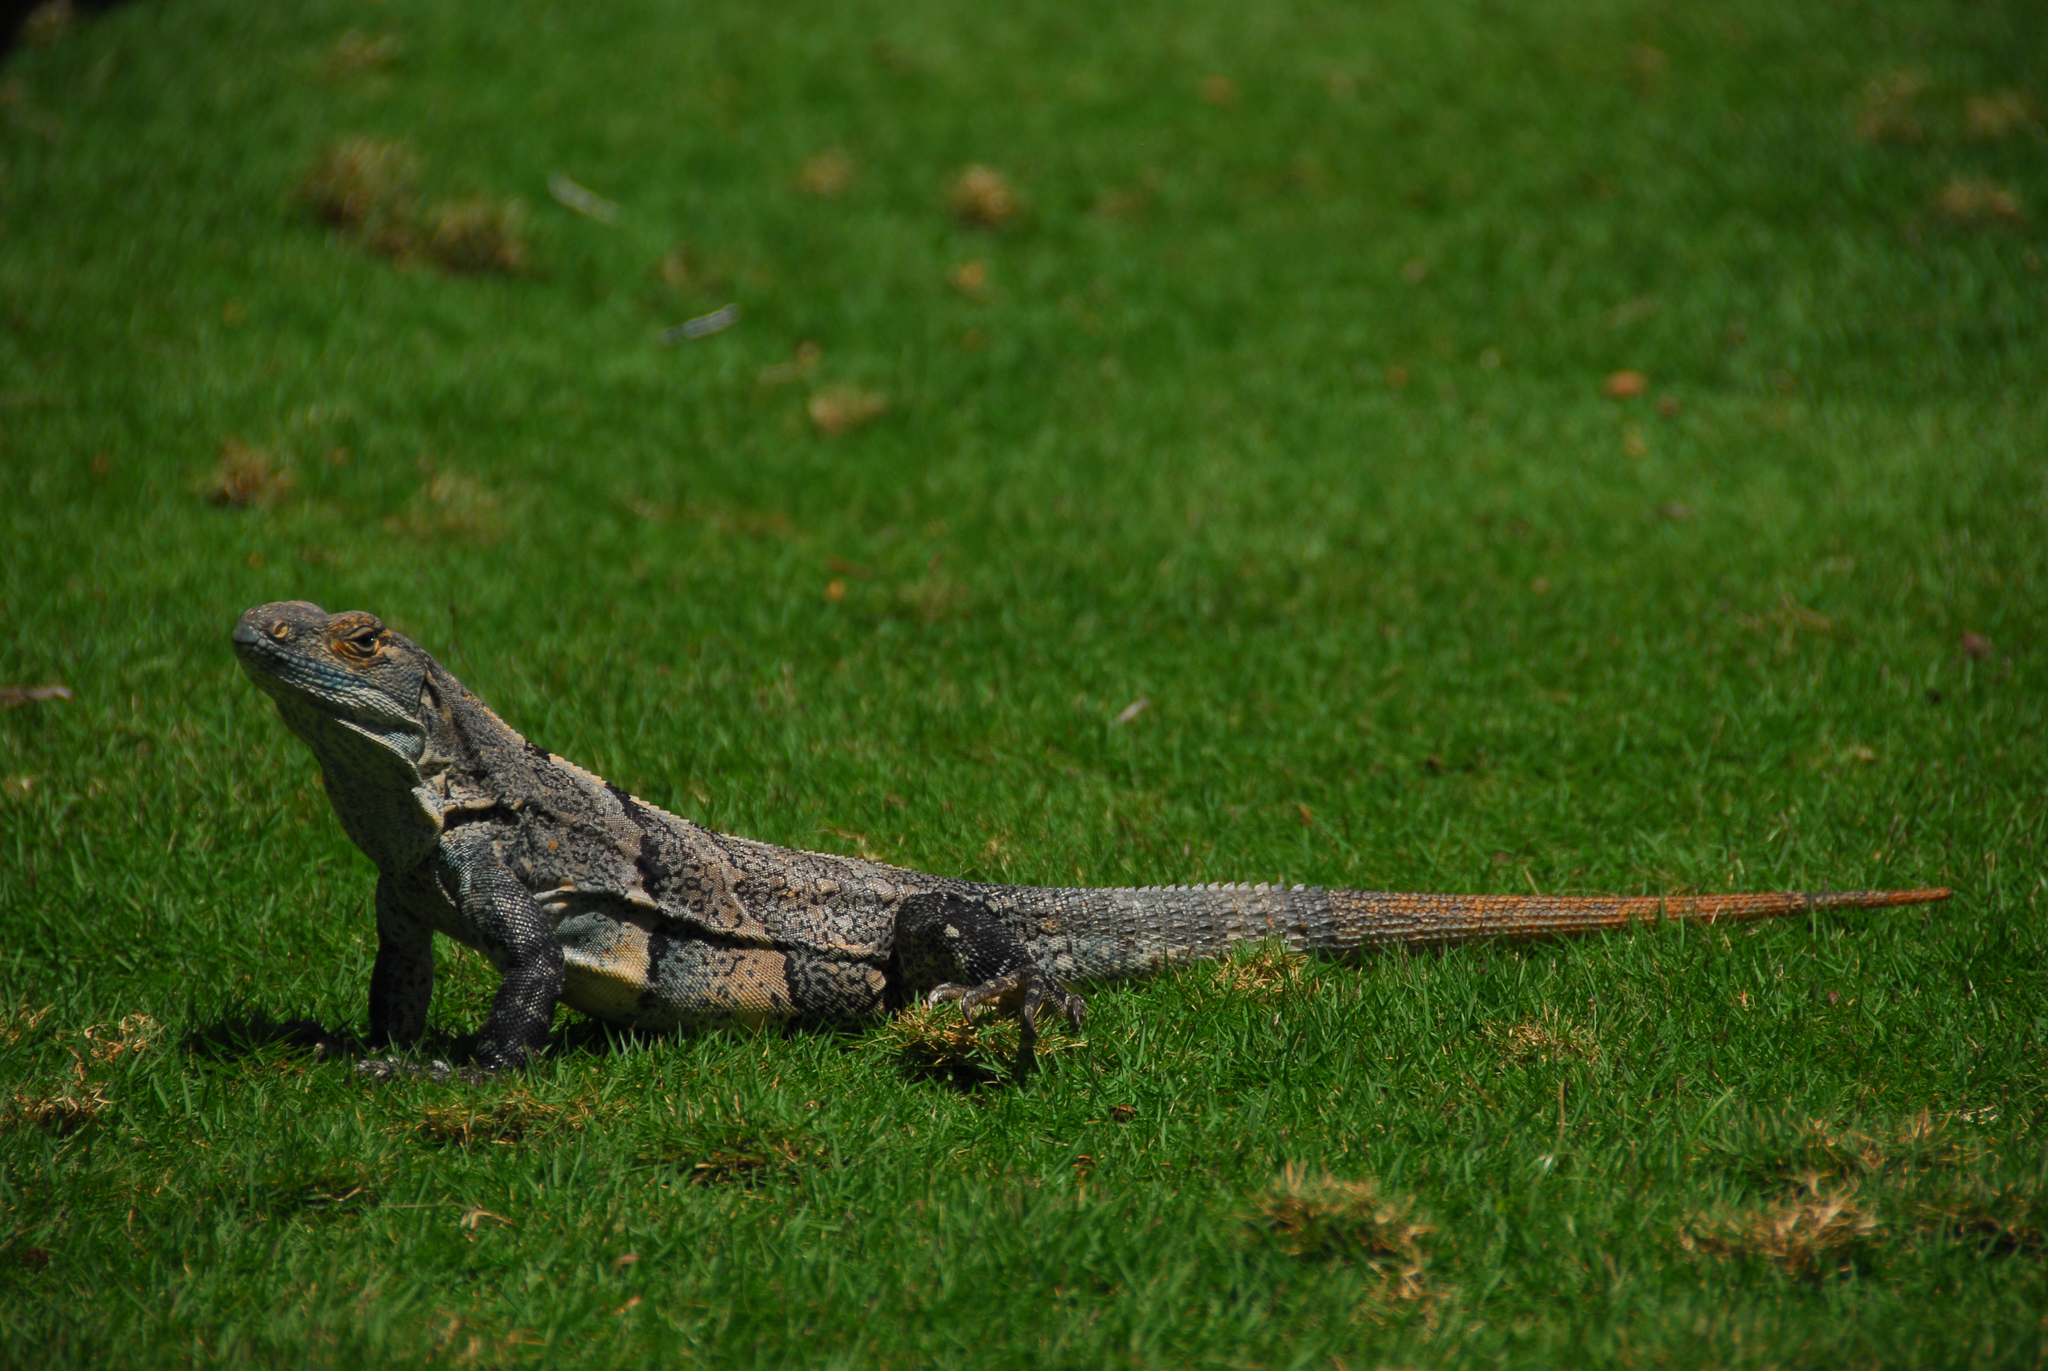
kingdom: Animalia
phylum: Chordata
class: Squamata
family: Iguanidae
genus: Ctenosaura
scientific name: Ctenosaura similis
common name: Black spiny-tailed iguana
